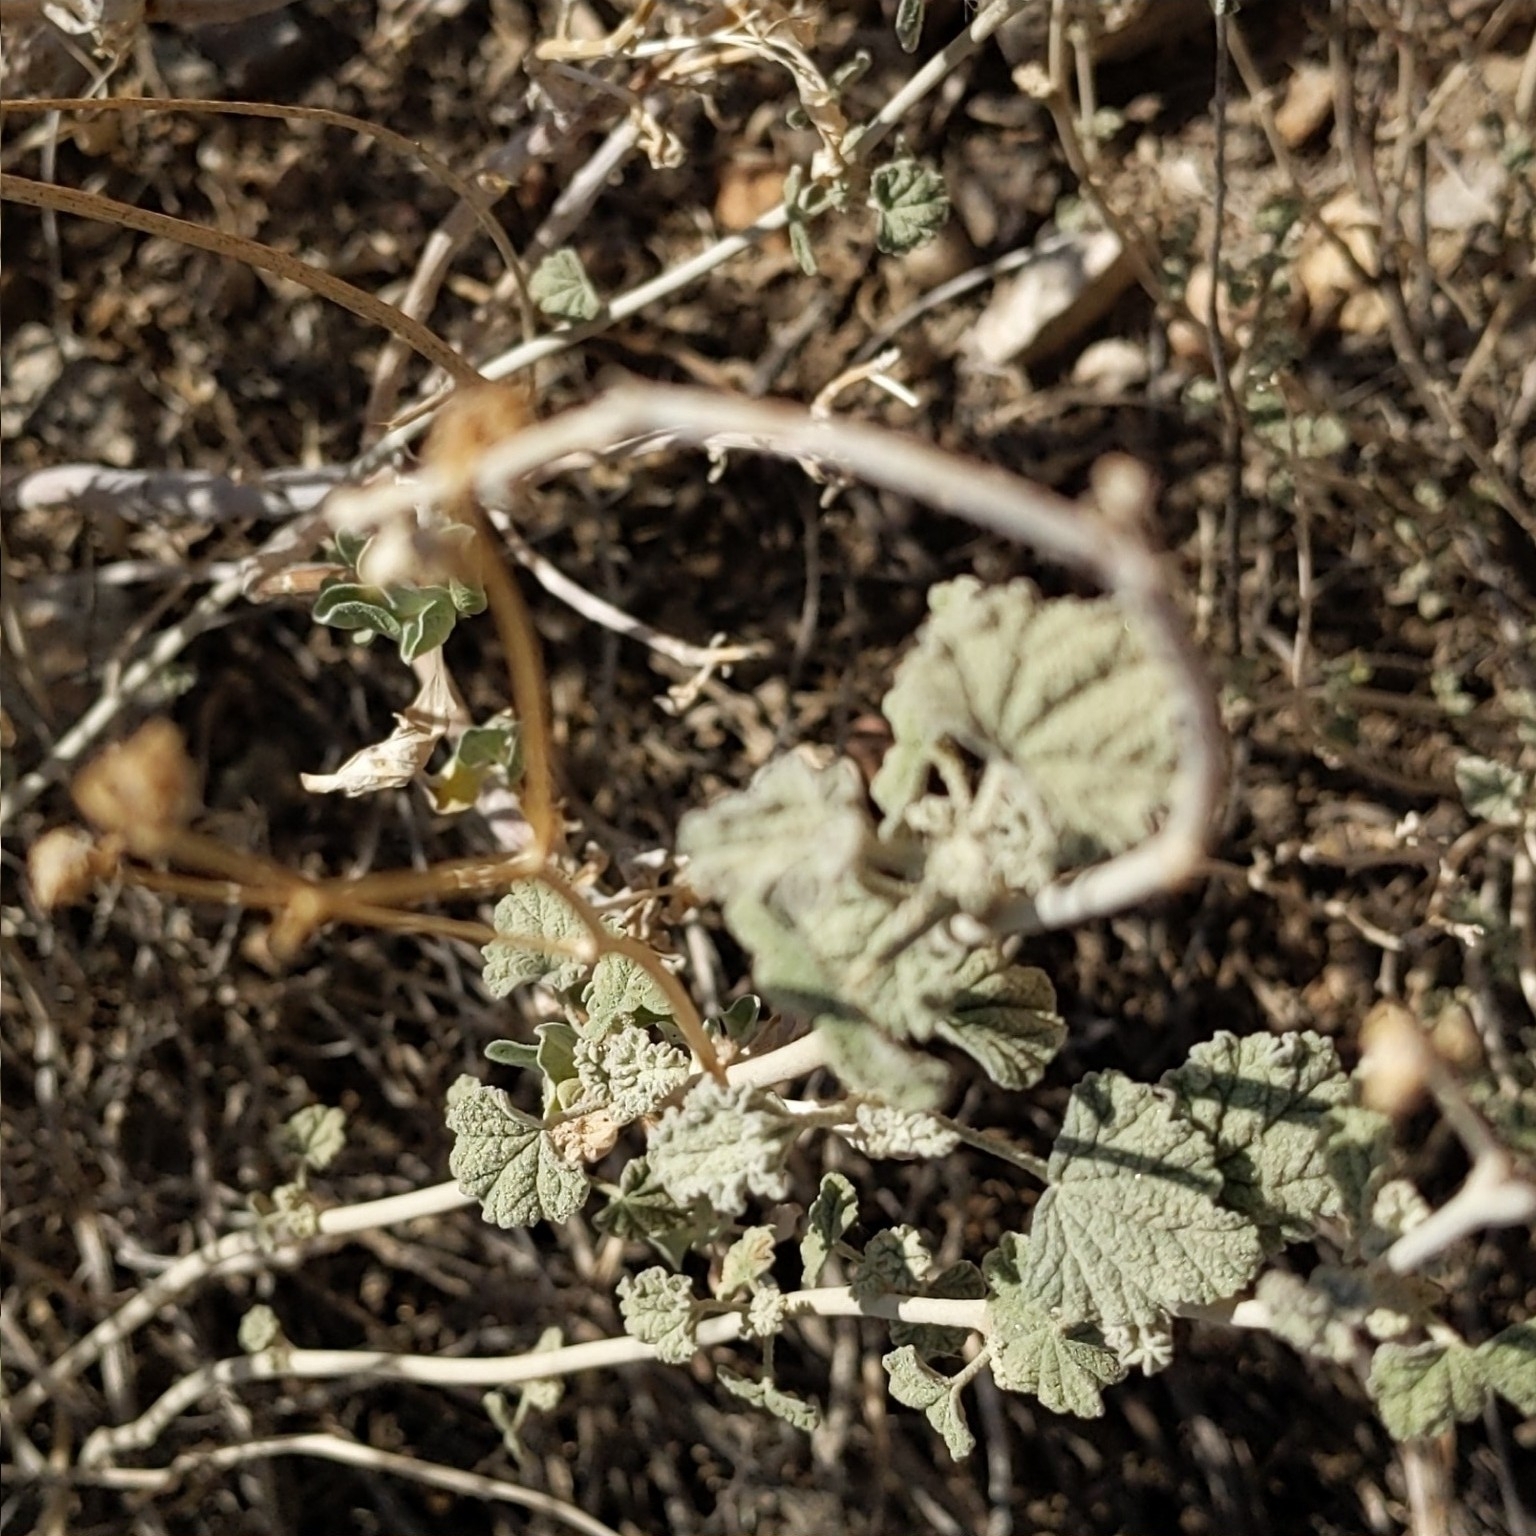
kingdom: Plantae
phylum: Tracheophyta
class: Magnoliopsida
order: Malvales
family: Malvaceae
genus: Sphaeralcea
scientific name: Sphaeralcea ambigua
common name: Apricot globe-mallow
